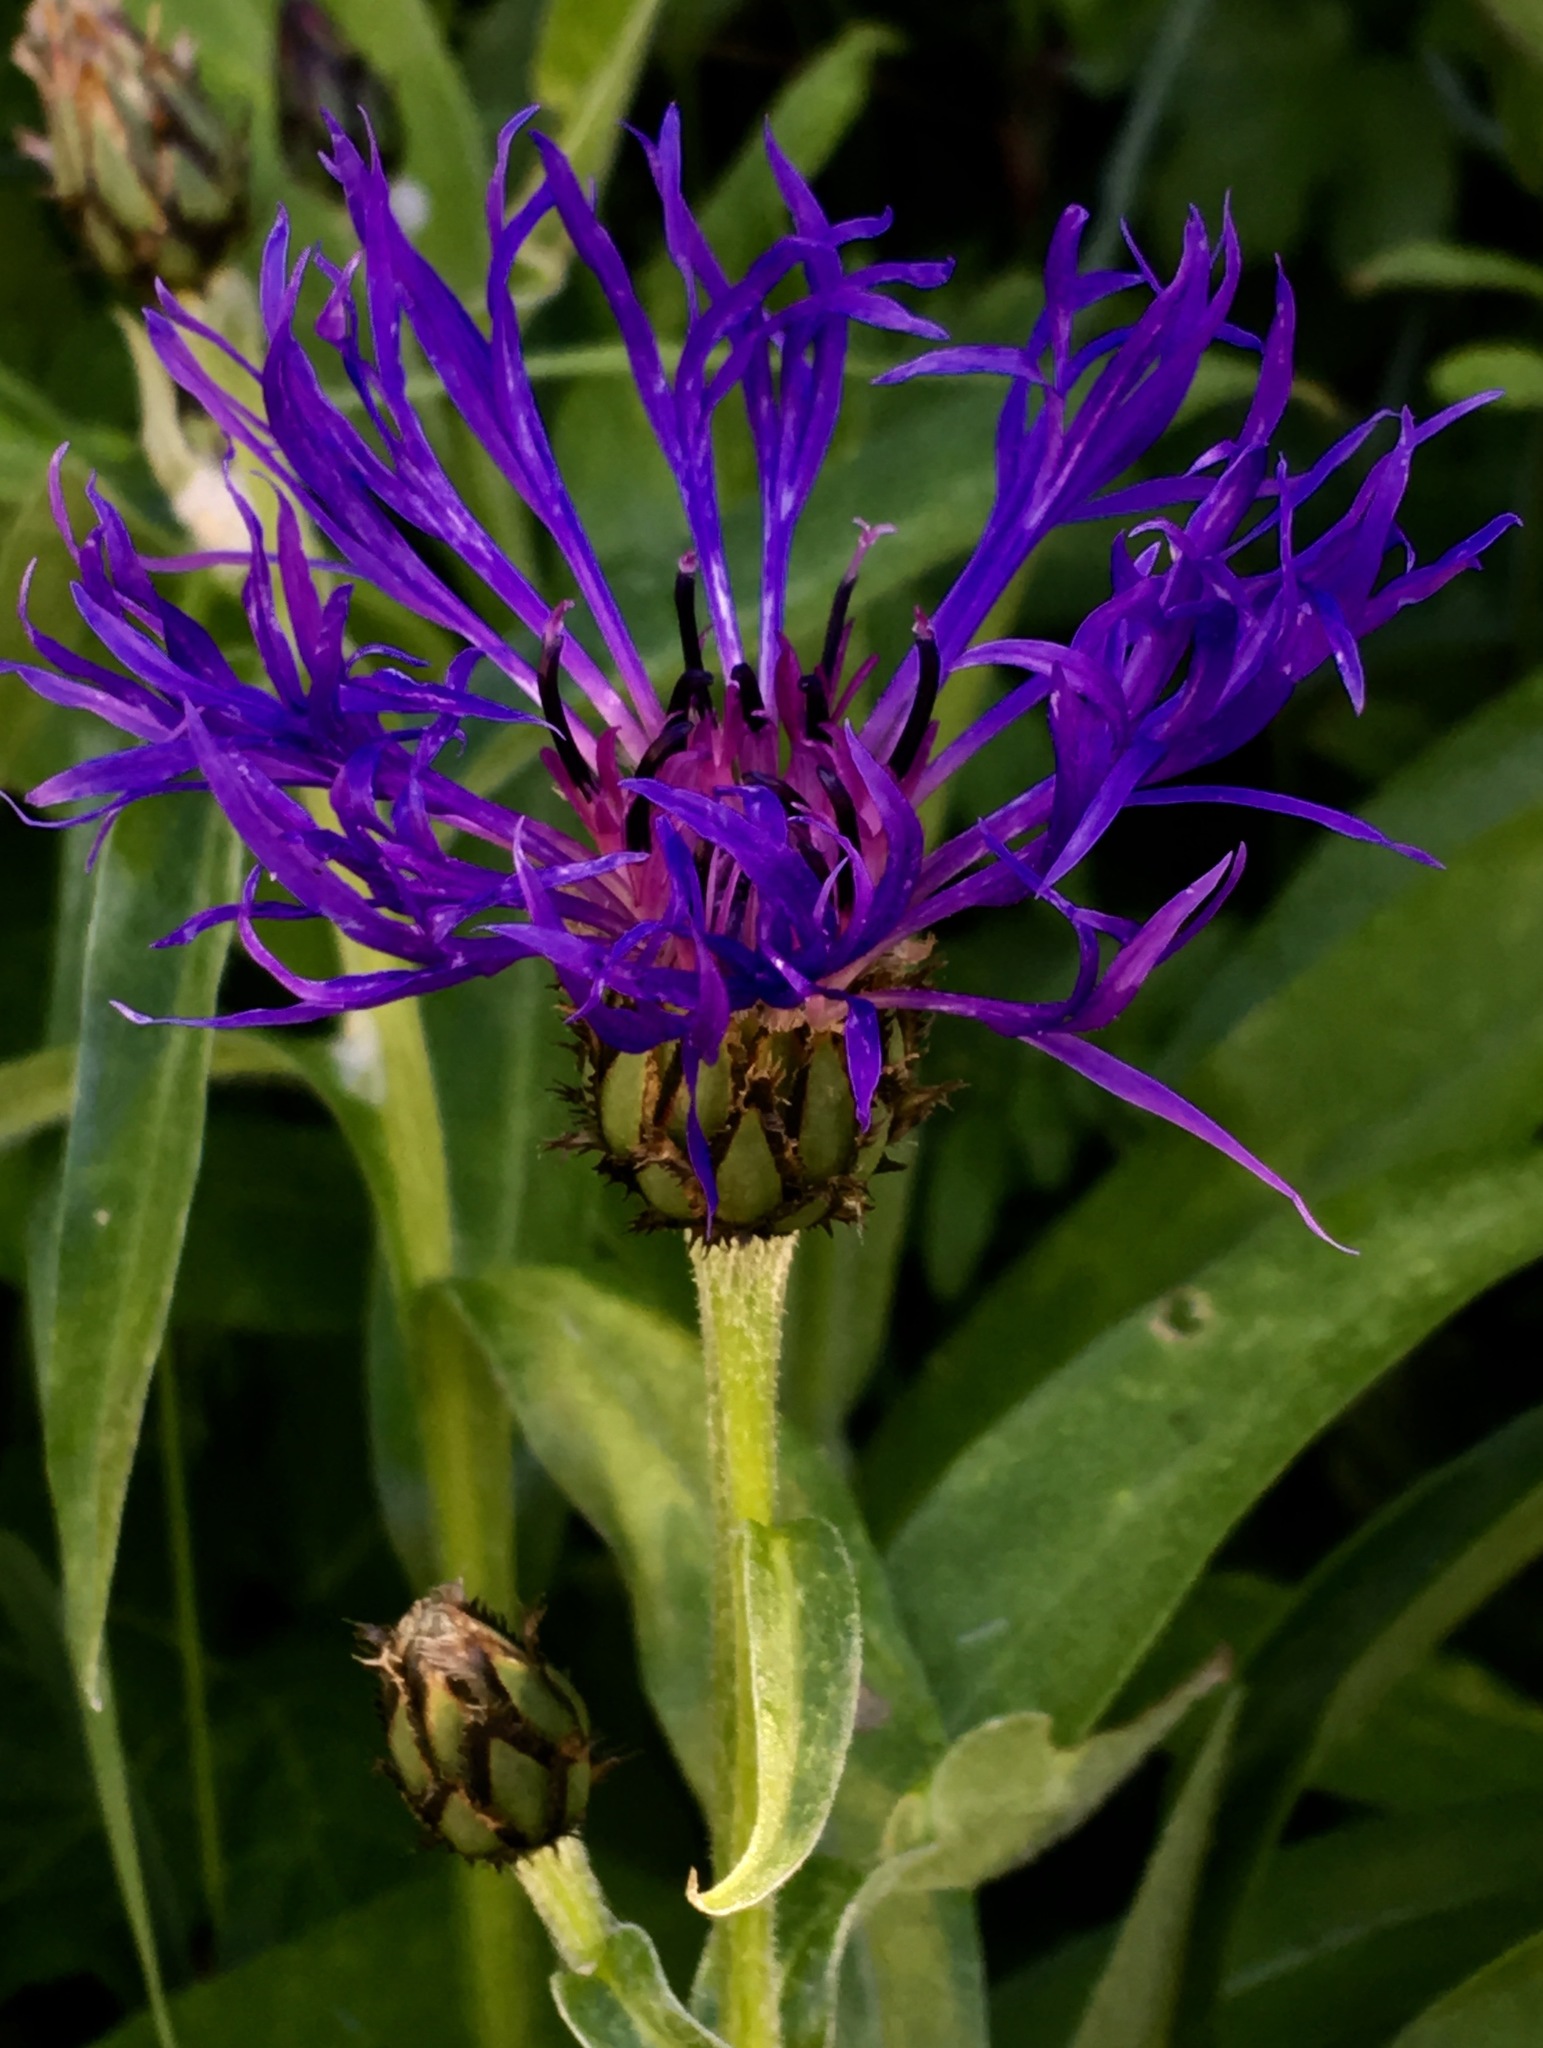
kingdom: Plantae
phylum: Tracheophyta
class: Magnoliopsida
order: Asterales
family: Asteraceae
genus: Centaurea
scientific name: Centaurea montana
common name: Perennial cornflower
